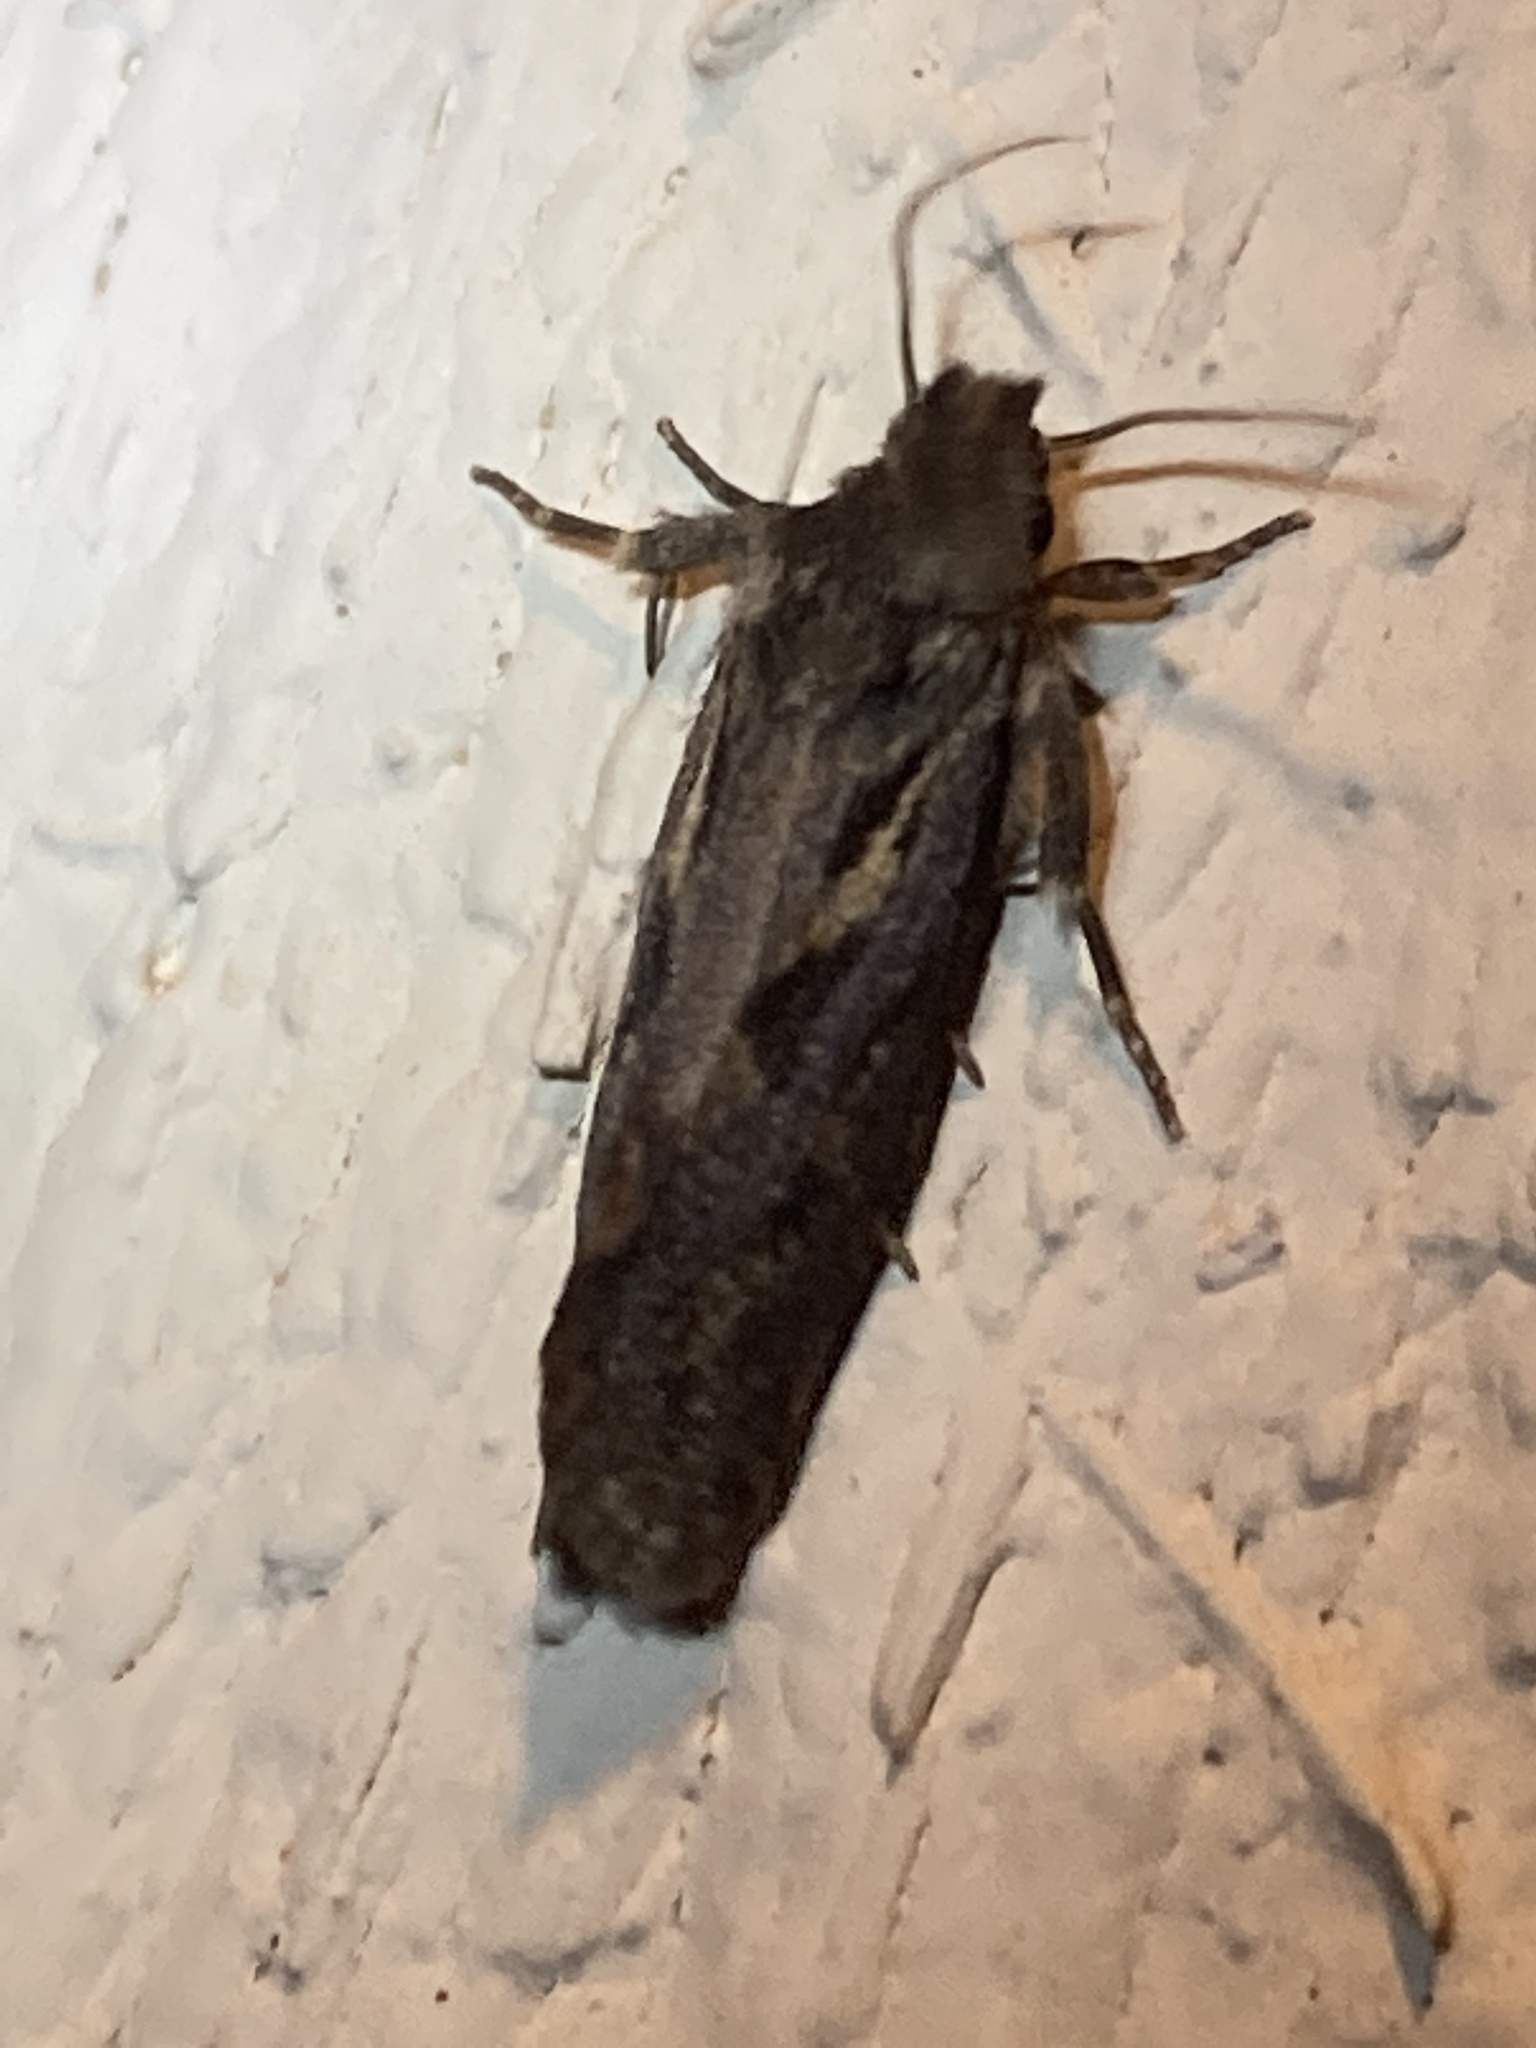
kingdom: Animalia
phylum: Arthropoda
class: Insecta
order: Lepidoptera
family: Tineidae
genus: Acrolophus
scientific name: Acrolophus popeanella
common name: Clemens' grass tubeworm moth
